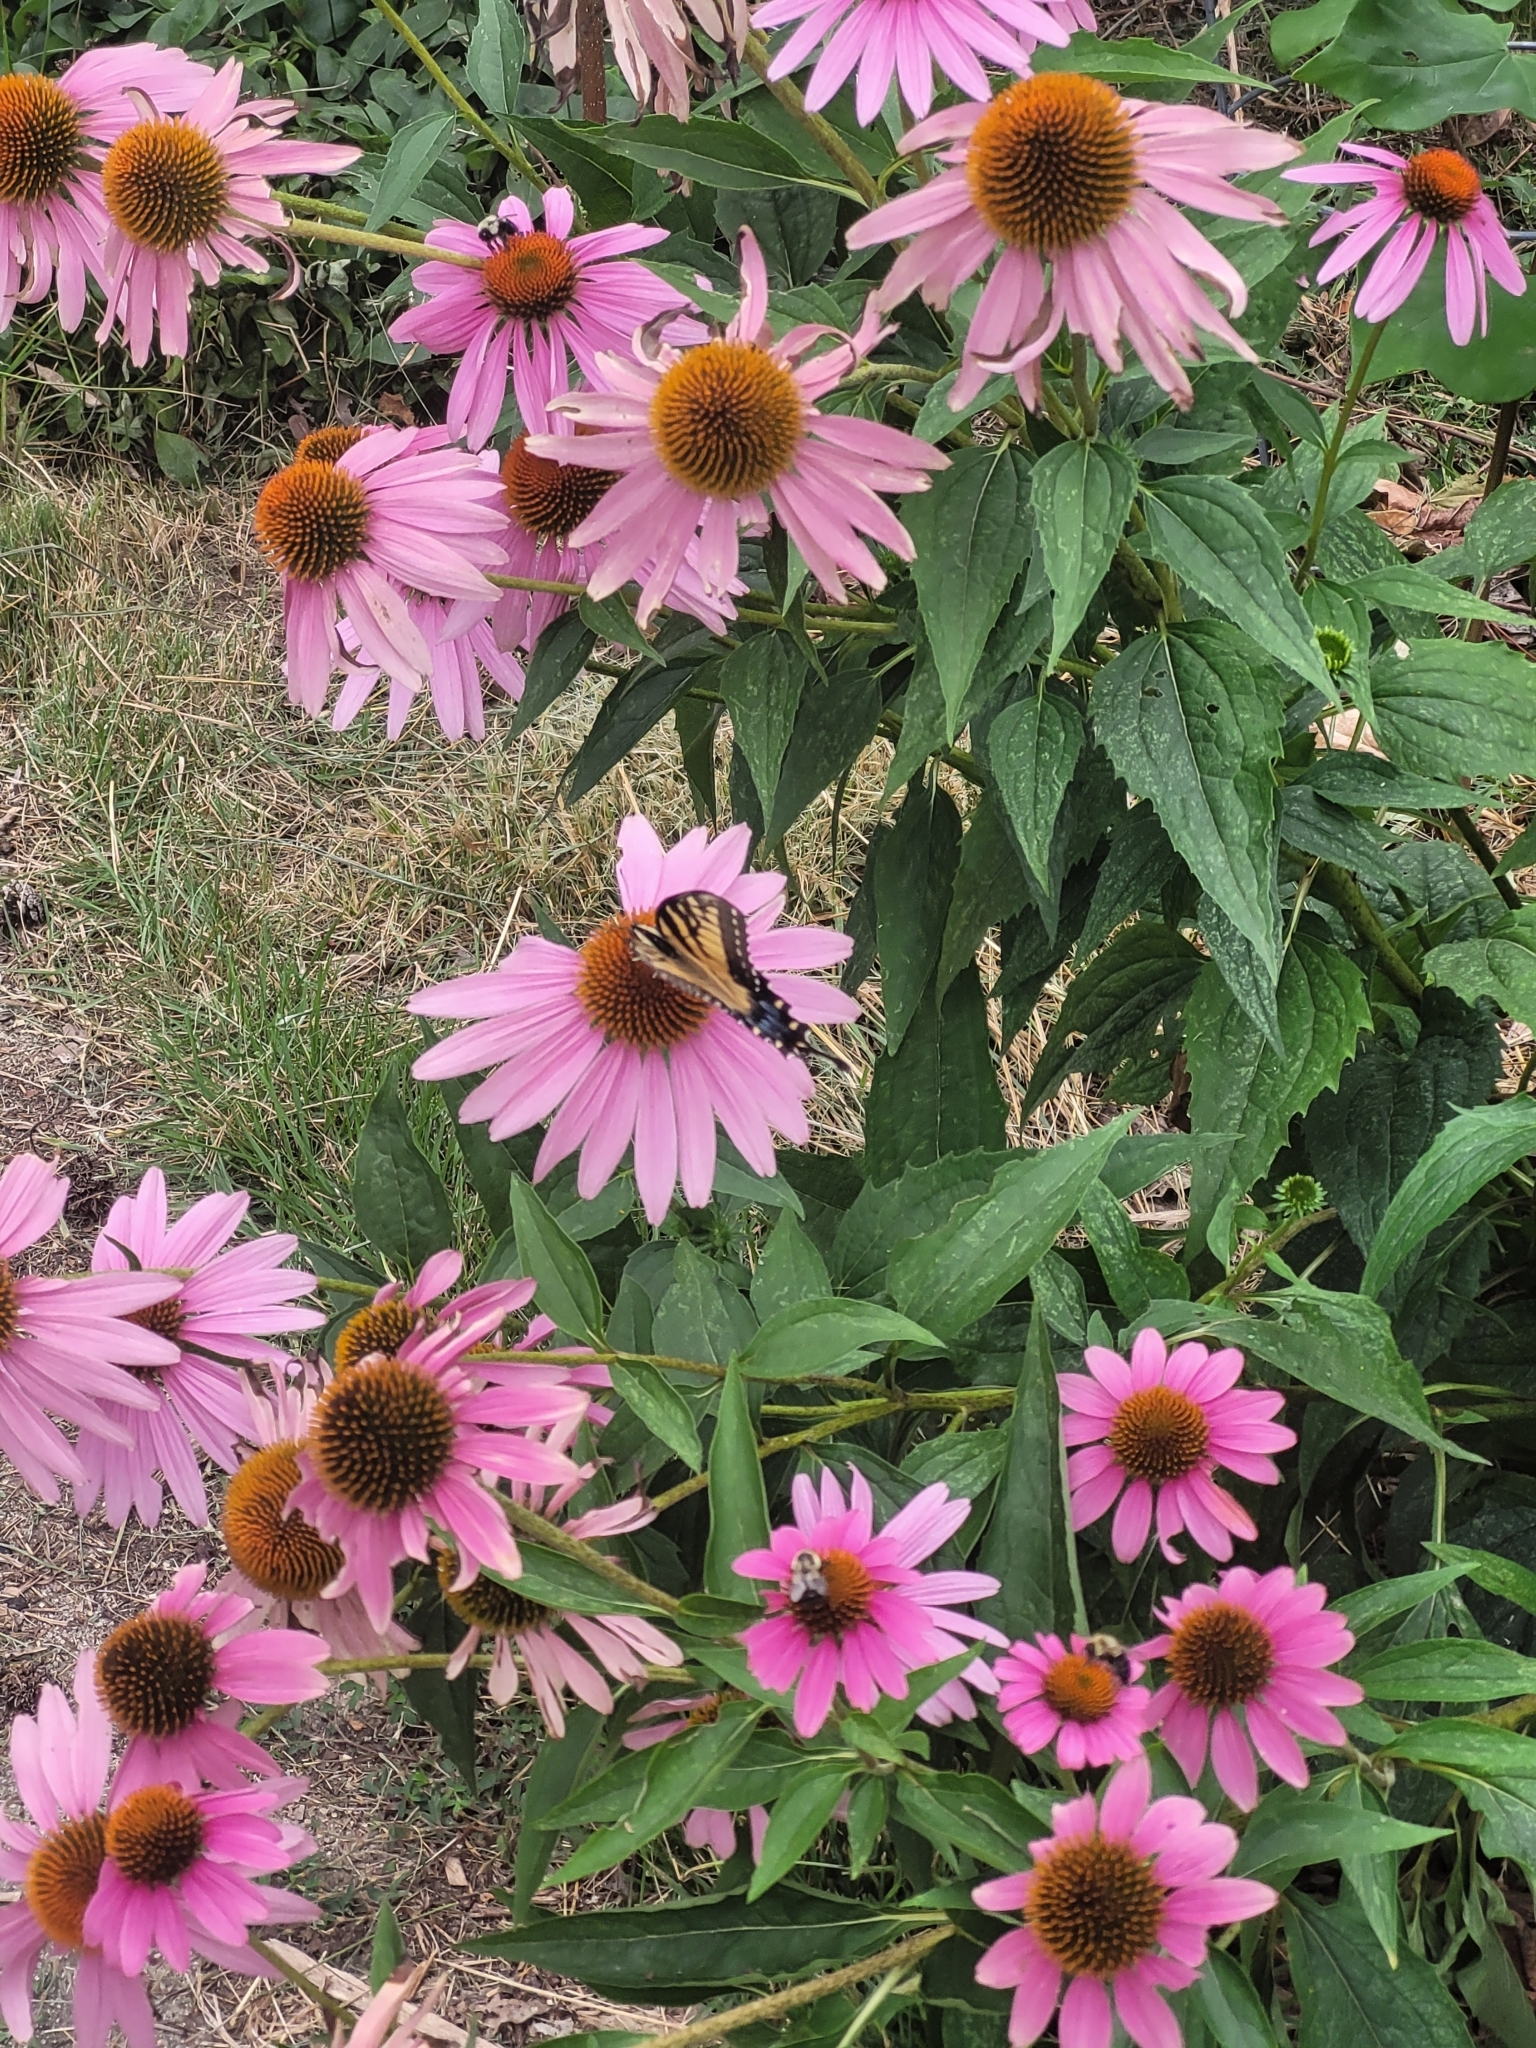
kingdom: Animalia
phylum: Arthropoda
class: Insecta
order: Lepidoptera
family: Papilionidae
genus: Papilio
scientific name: Papilio glaucus
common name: Tiger swallowtail
